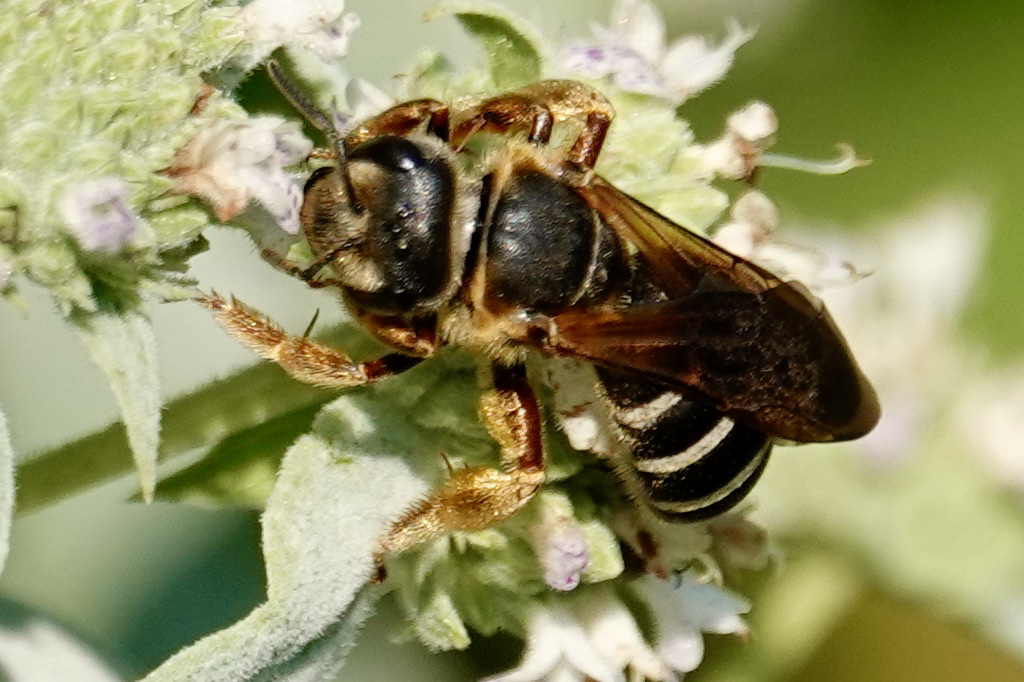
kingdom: Animalia
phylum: Arthropoda
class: Insecta
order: Hymenoptera
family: Halictidae
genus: Halictus
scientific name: Halictus parallelus
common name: Parallel-striped sweat bee
